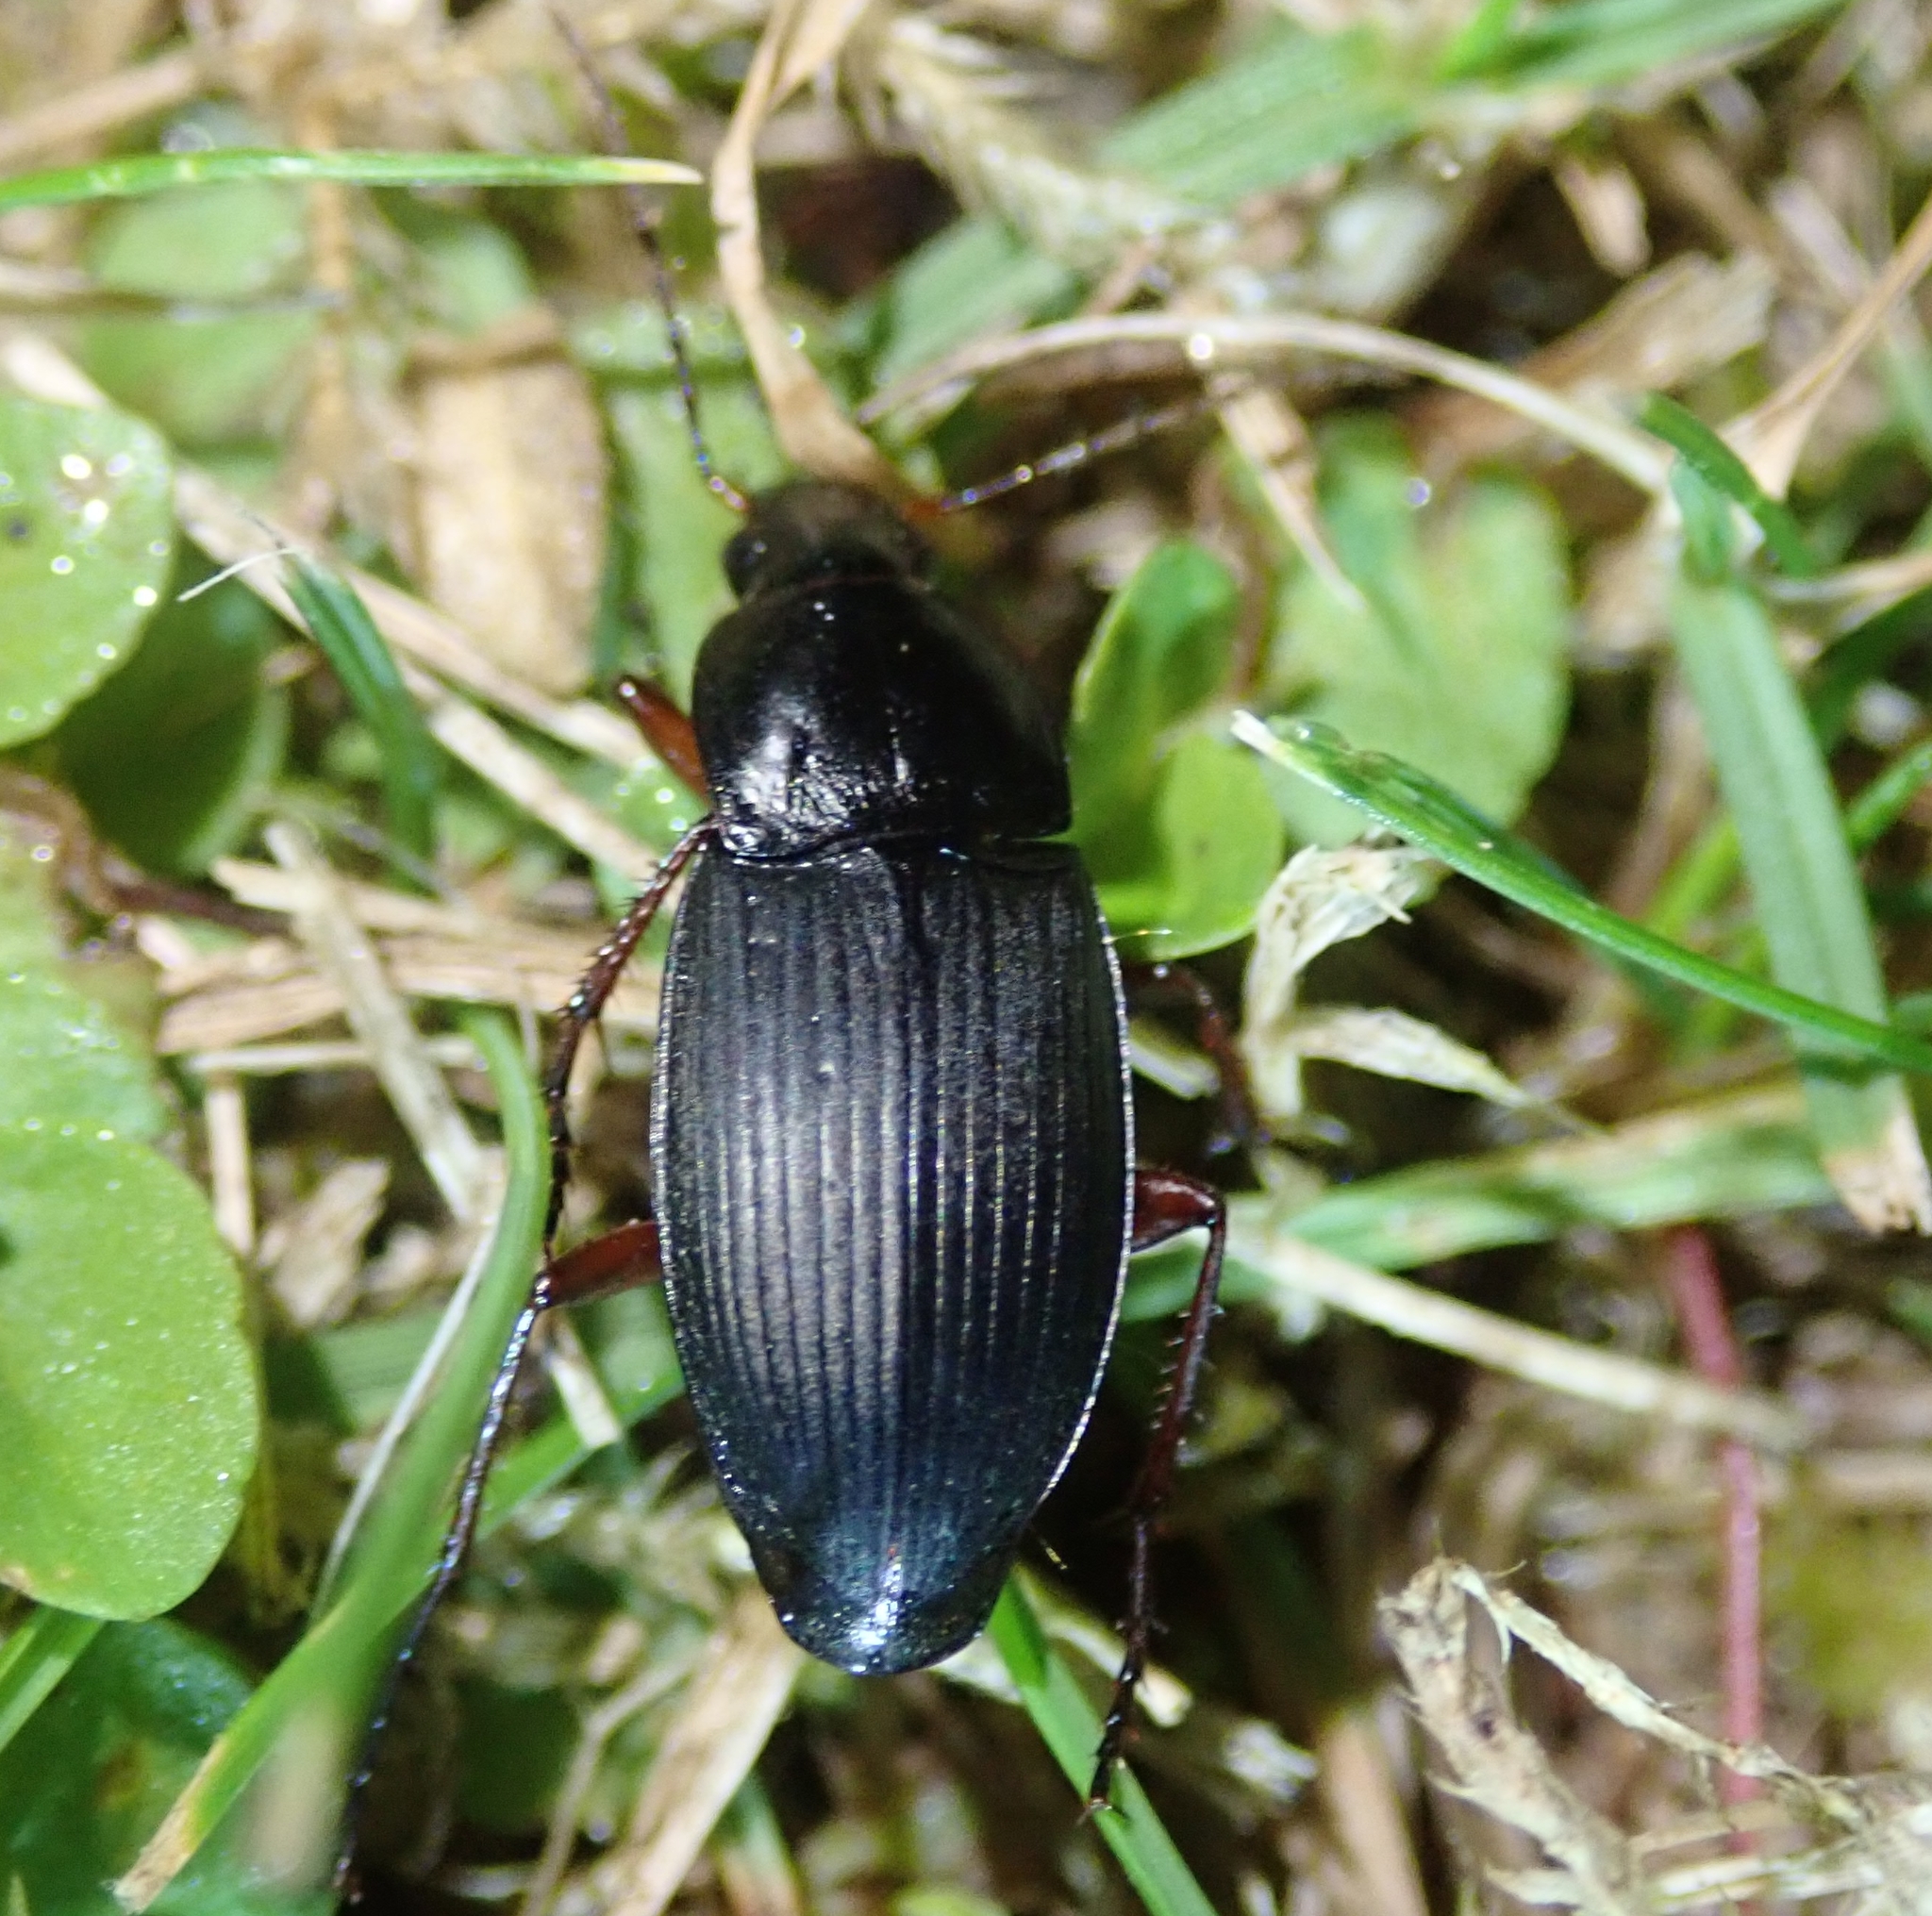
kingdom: Animalia
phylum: Arthropoda
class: Insecta
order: Coleoptera
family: Carabidae
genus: Calathus
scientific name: Calathus fuscipes
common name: Dark-footed harp ground beetle
